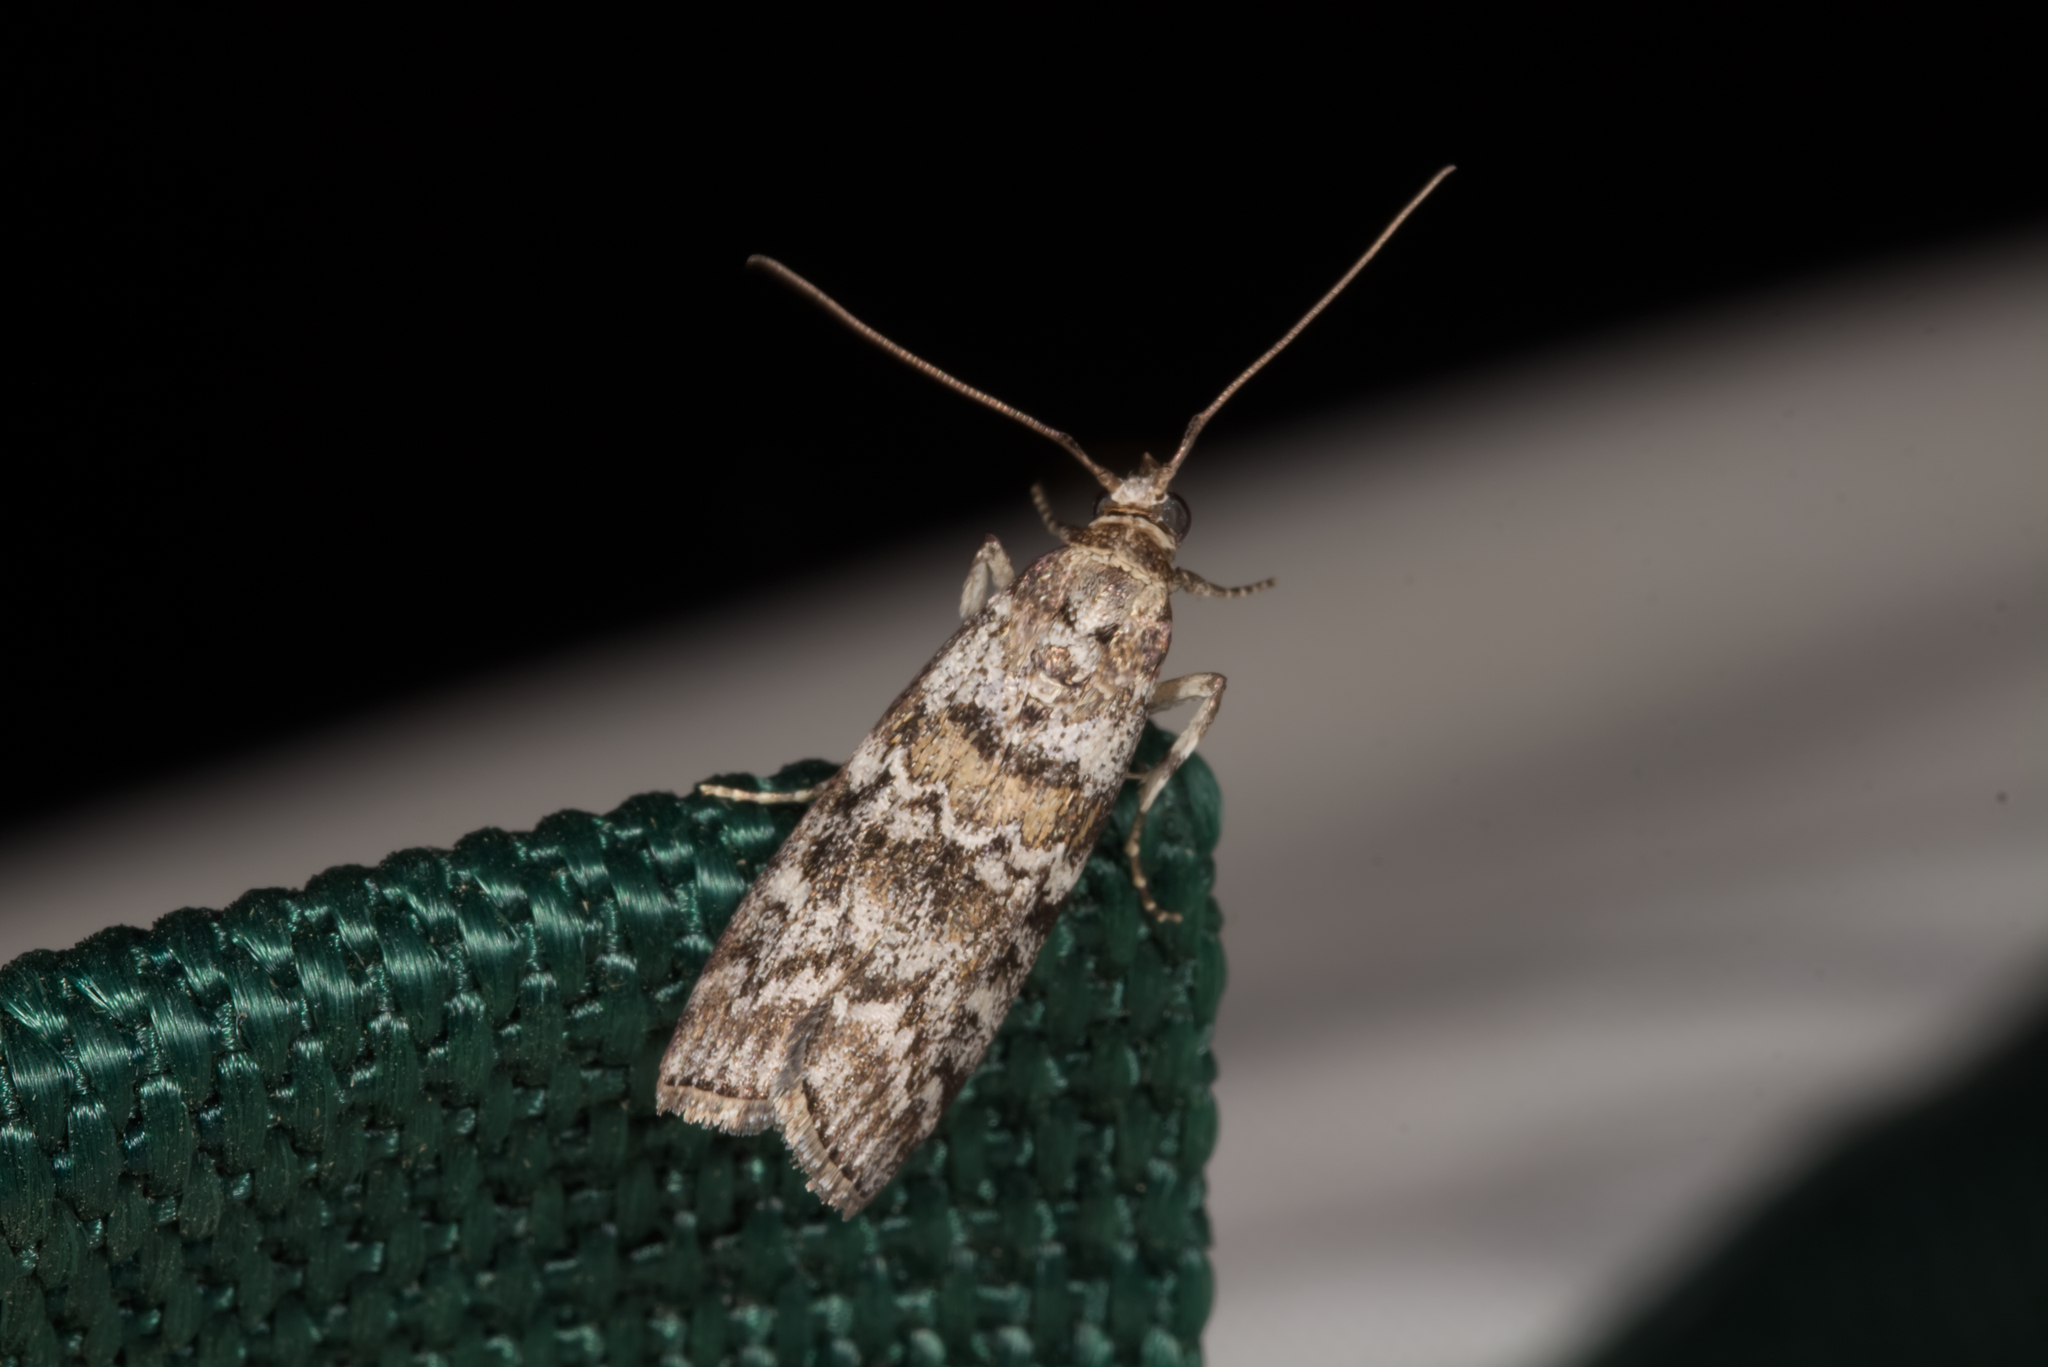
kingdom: Animalia
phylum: Arthropoda
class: Insecta
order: Lepidoptera
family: Pyralidae
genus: Dioryctria
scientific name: Dioryctria abietella
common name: Dark pine knot-horn
